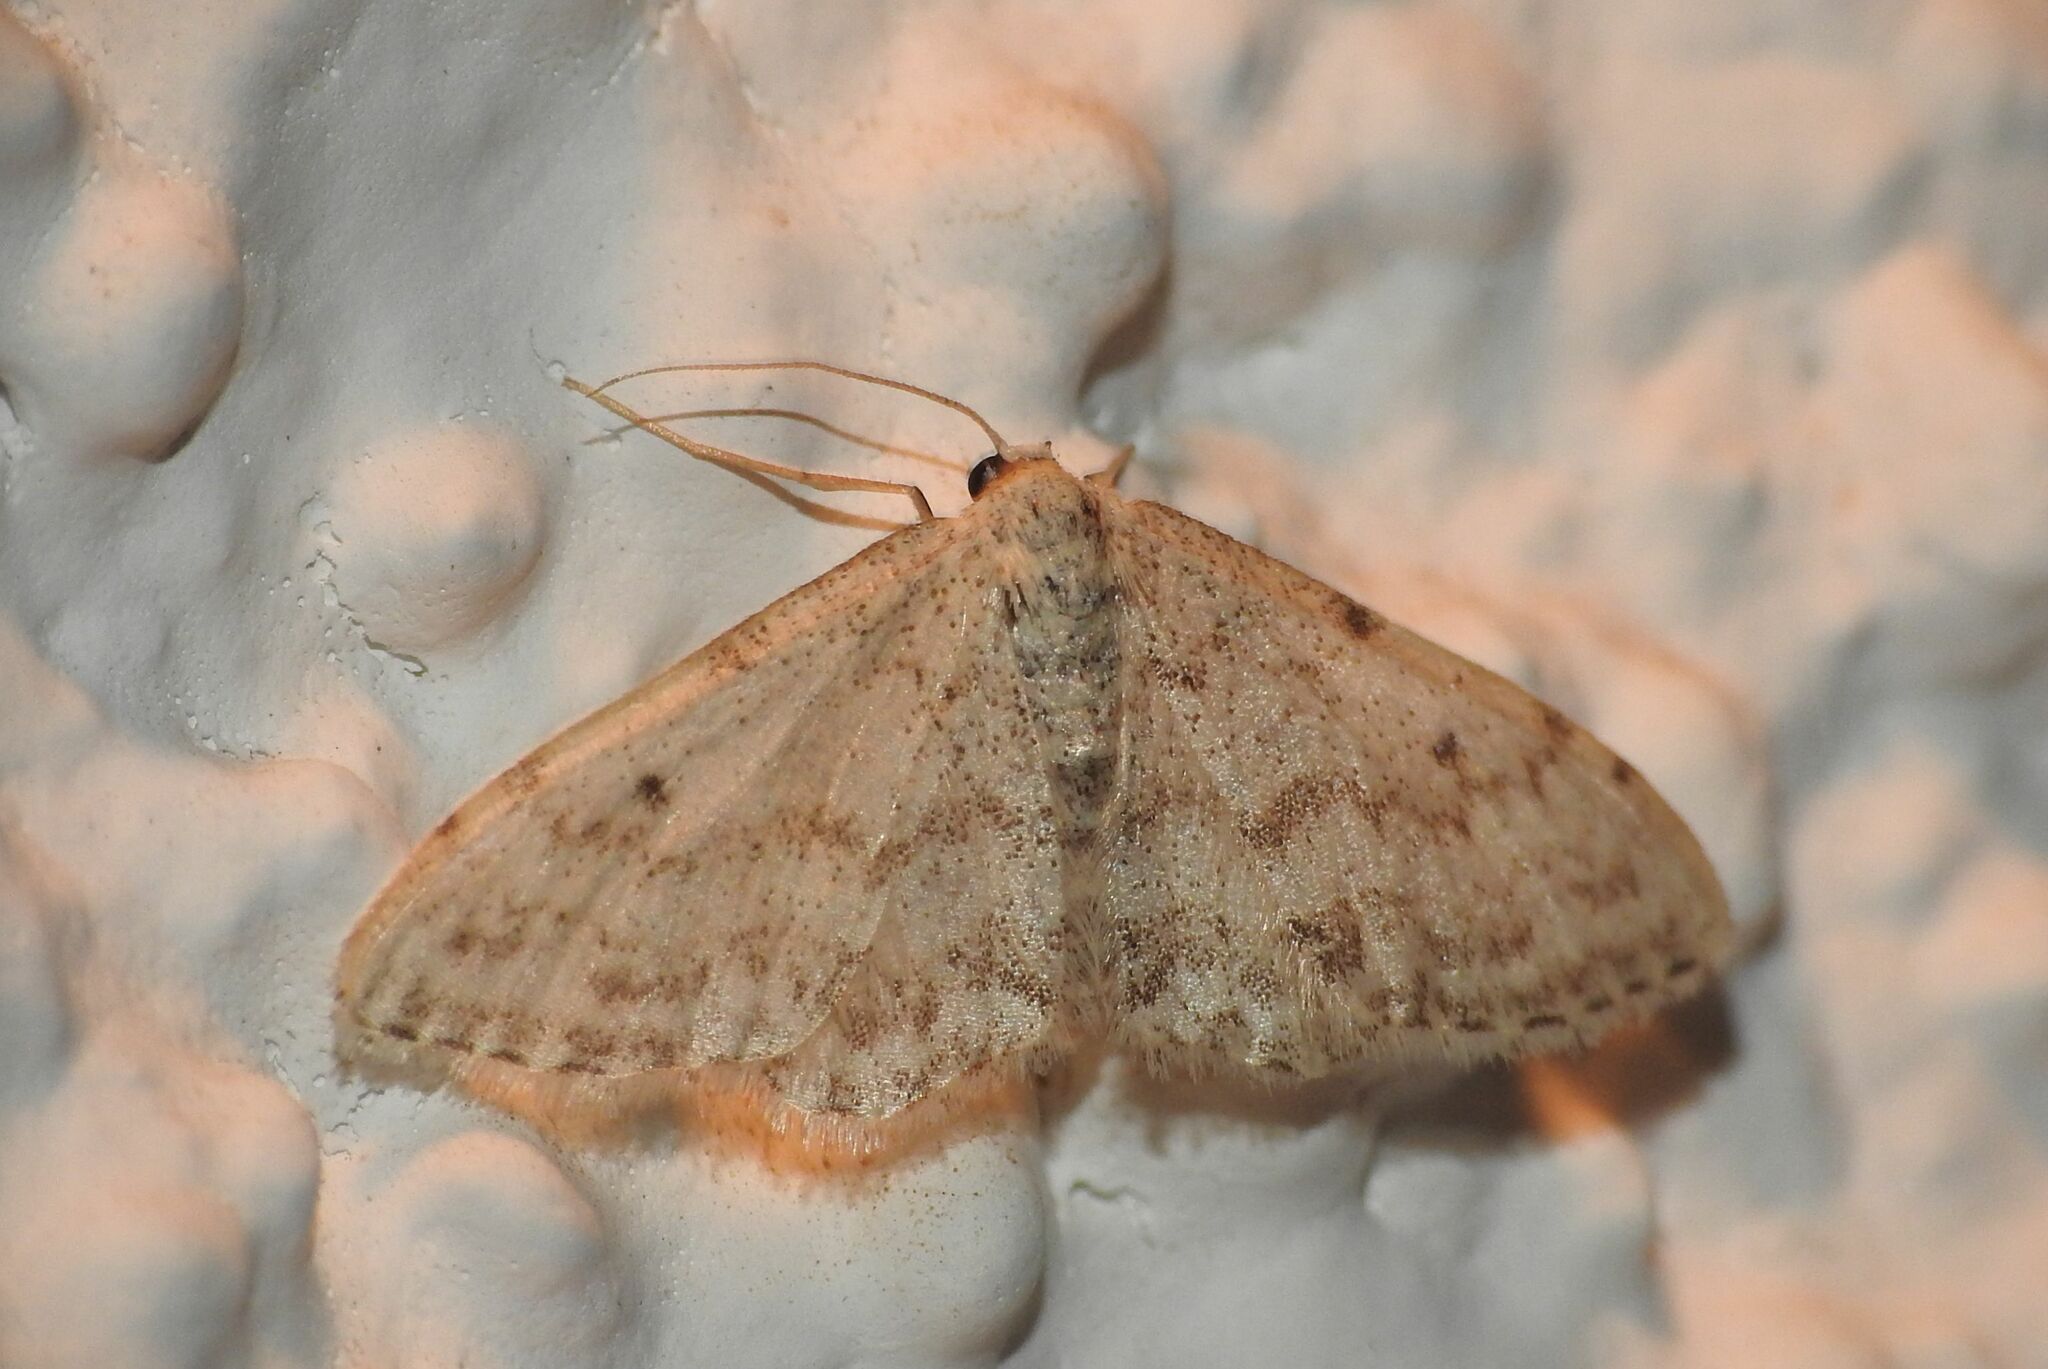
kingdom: Animalia
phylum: Arthropoda
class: Insecta
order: Lepidoptera
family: Geometridae
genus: Idaea
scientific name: Idaea camparia
